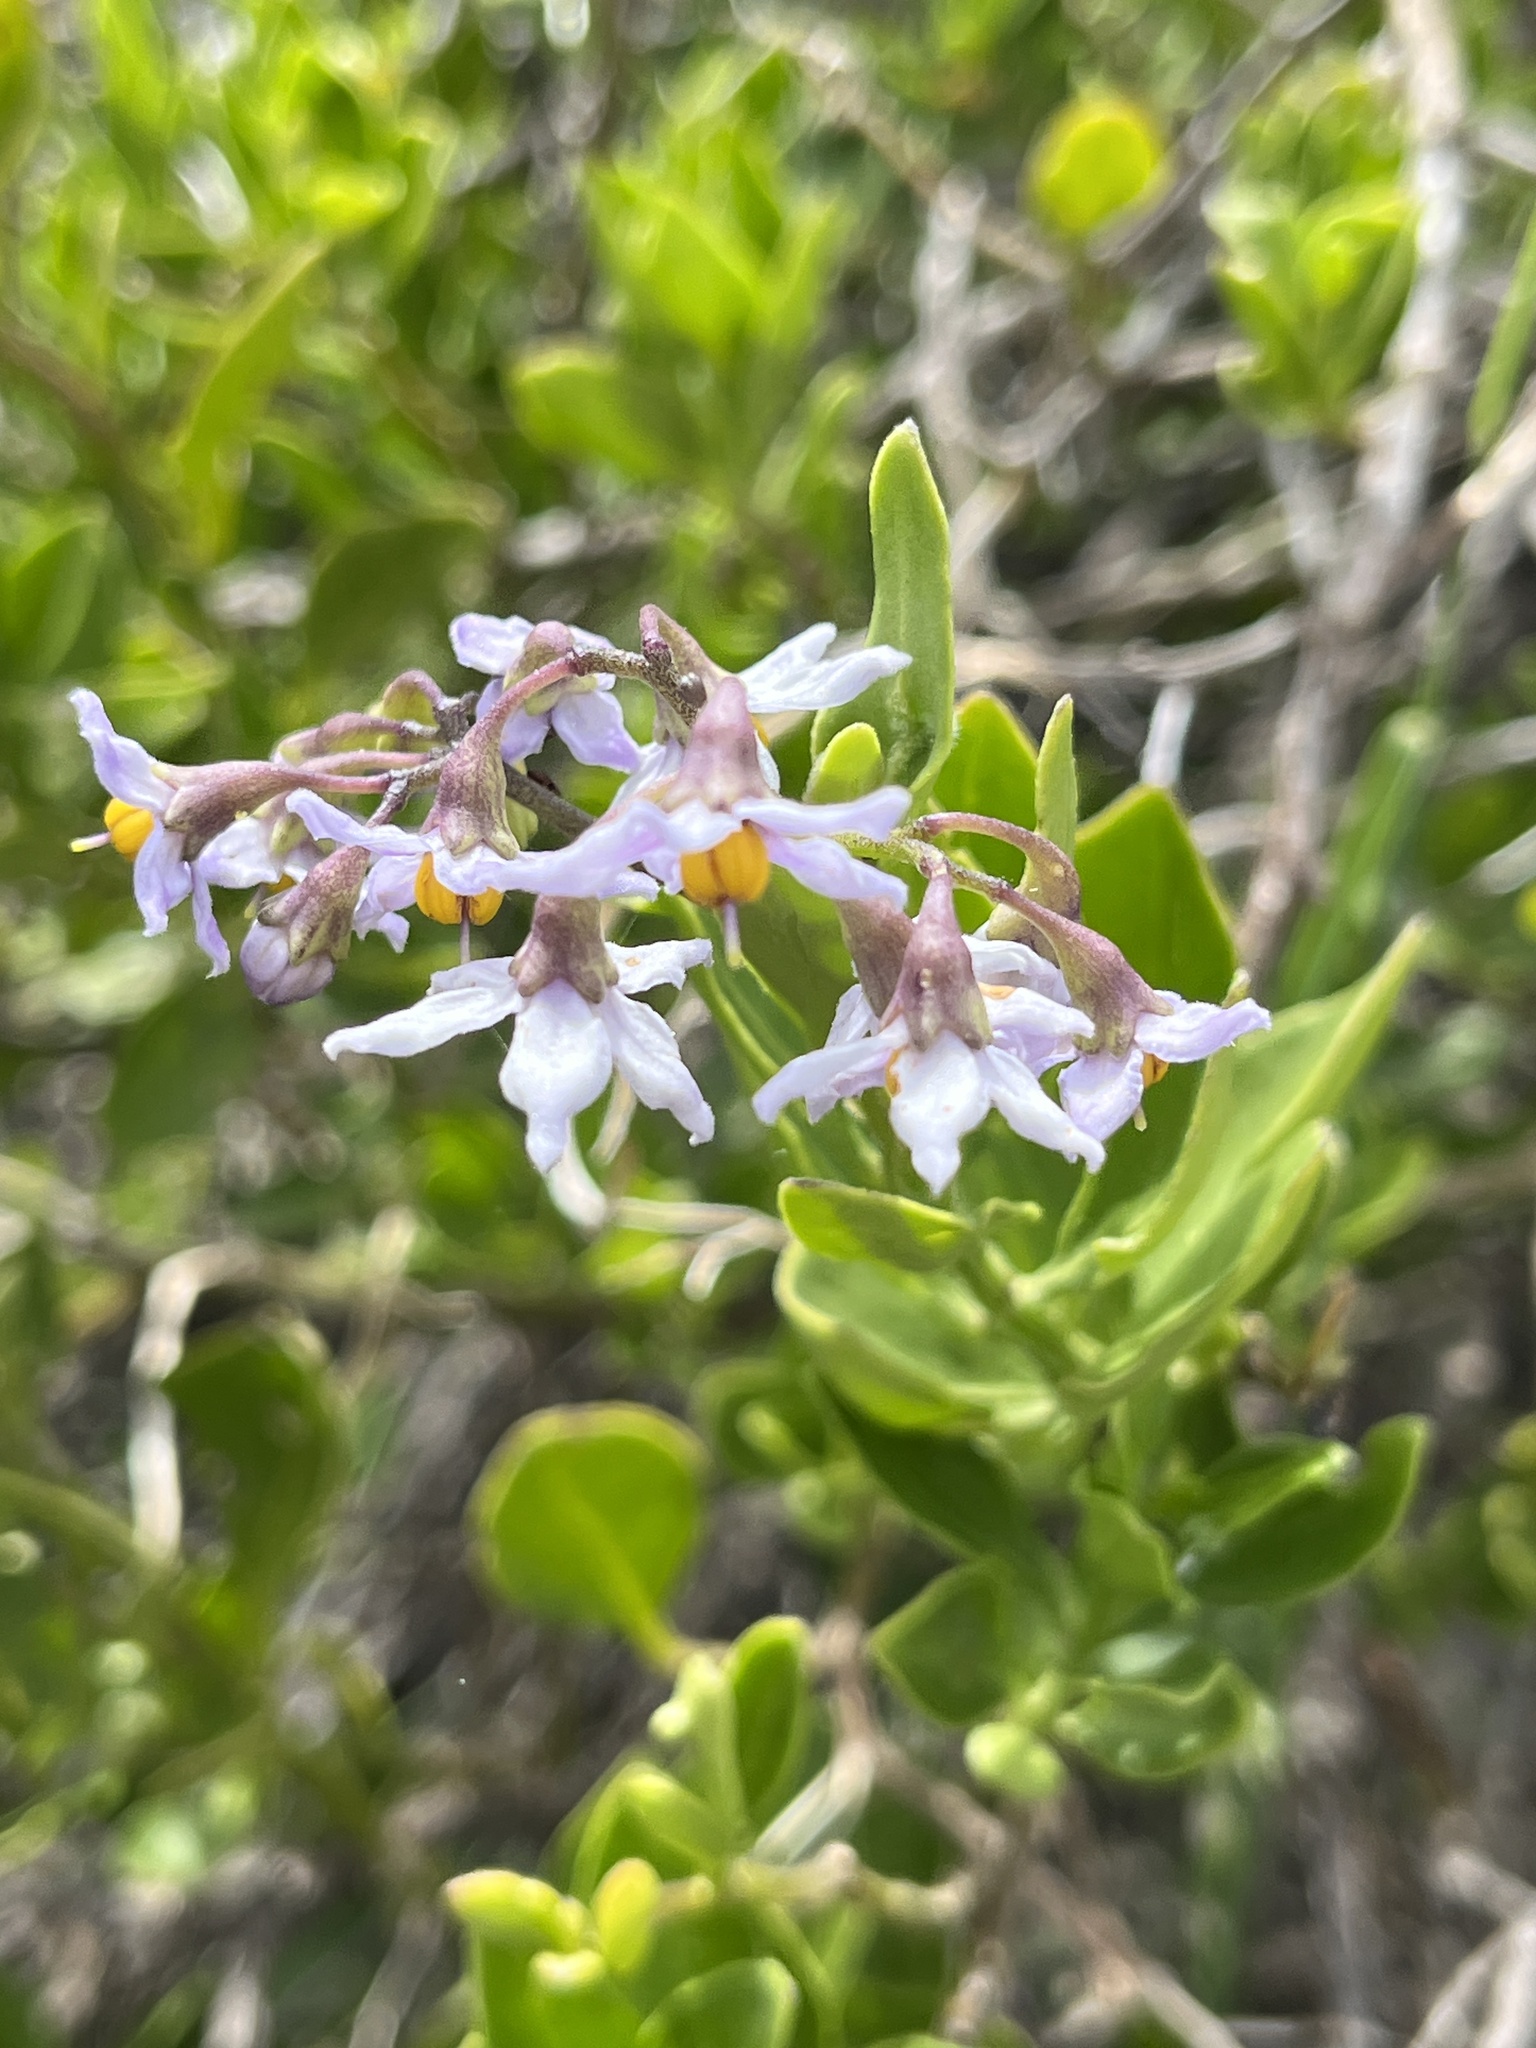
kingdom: Plantae
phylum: Tracheophyta
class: Magnoliopsida
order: Solanales
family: Solanaceae
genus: Solanum
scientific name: Solanum africanum
